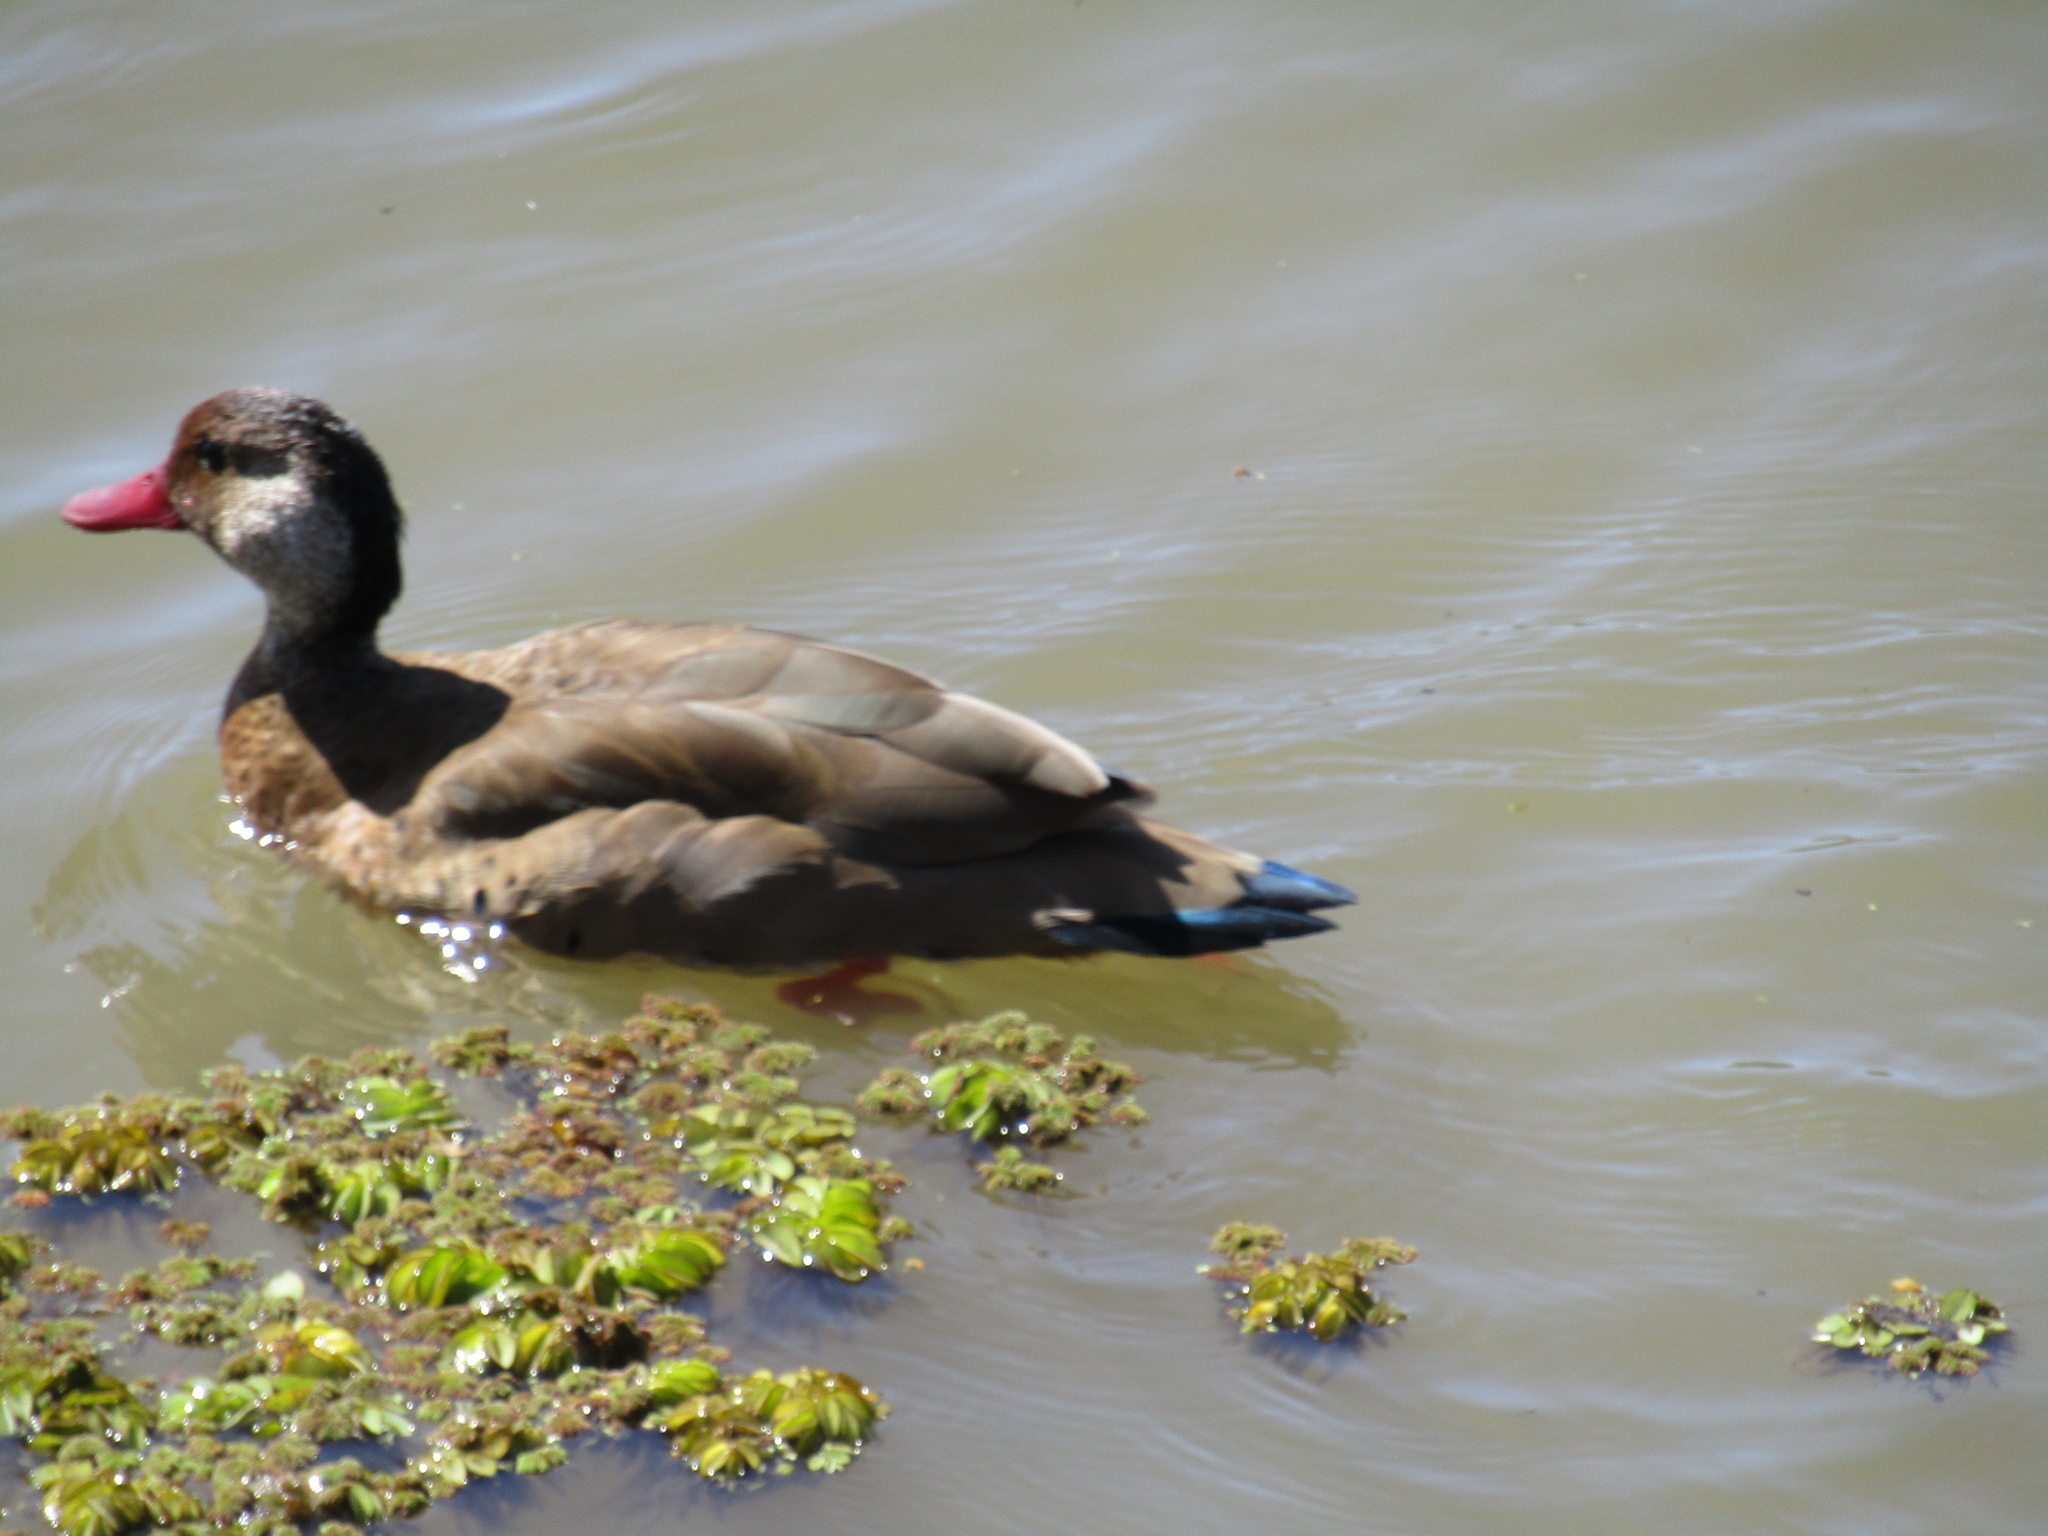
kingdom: Animalia
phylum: Chordata
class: Aves
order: Anseriformes
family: Anatidae
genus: Amazonetta
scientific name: Amazonetta brasiliensis
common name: Brazilian teal
